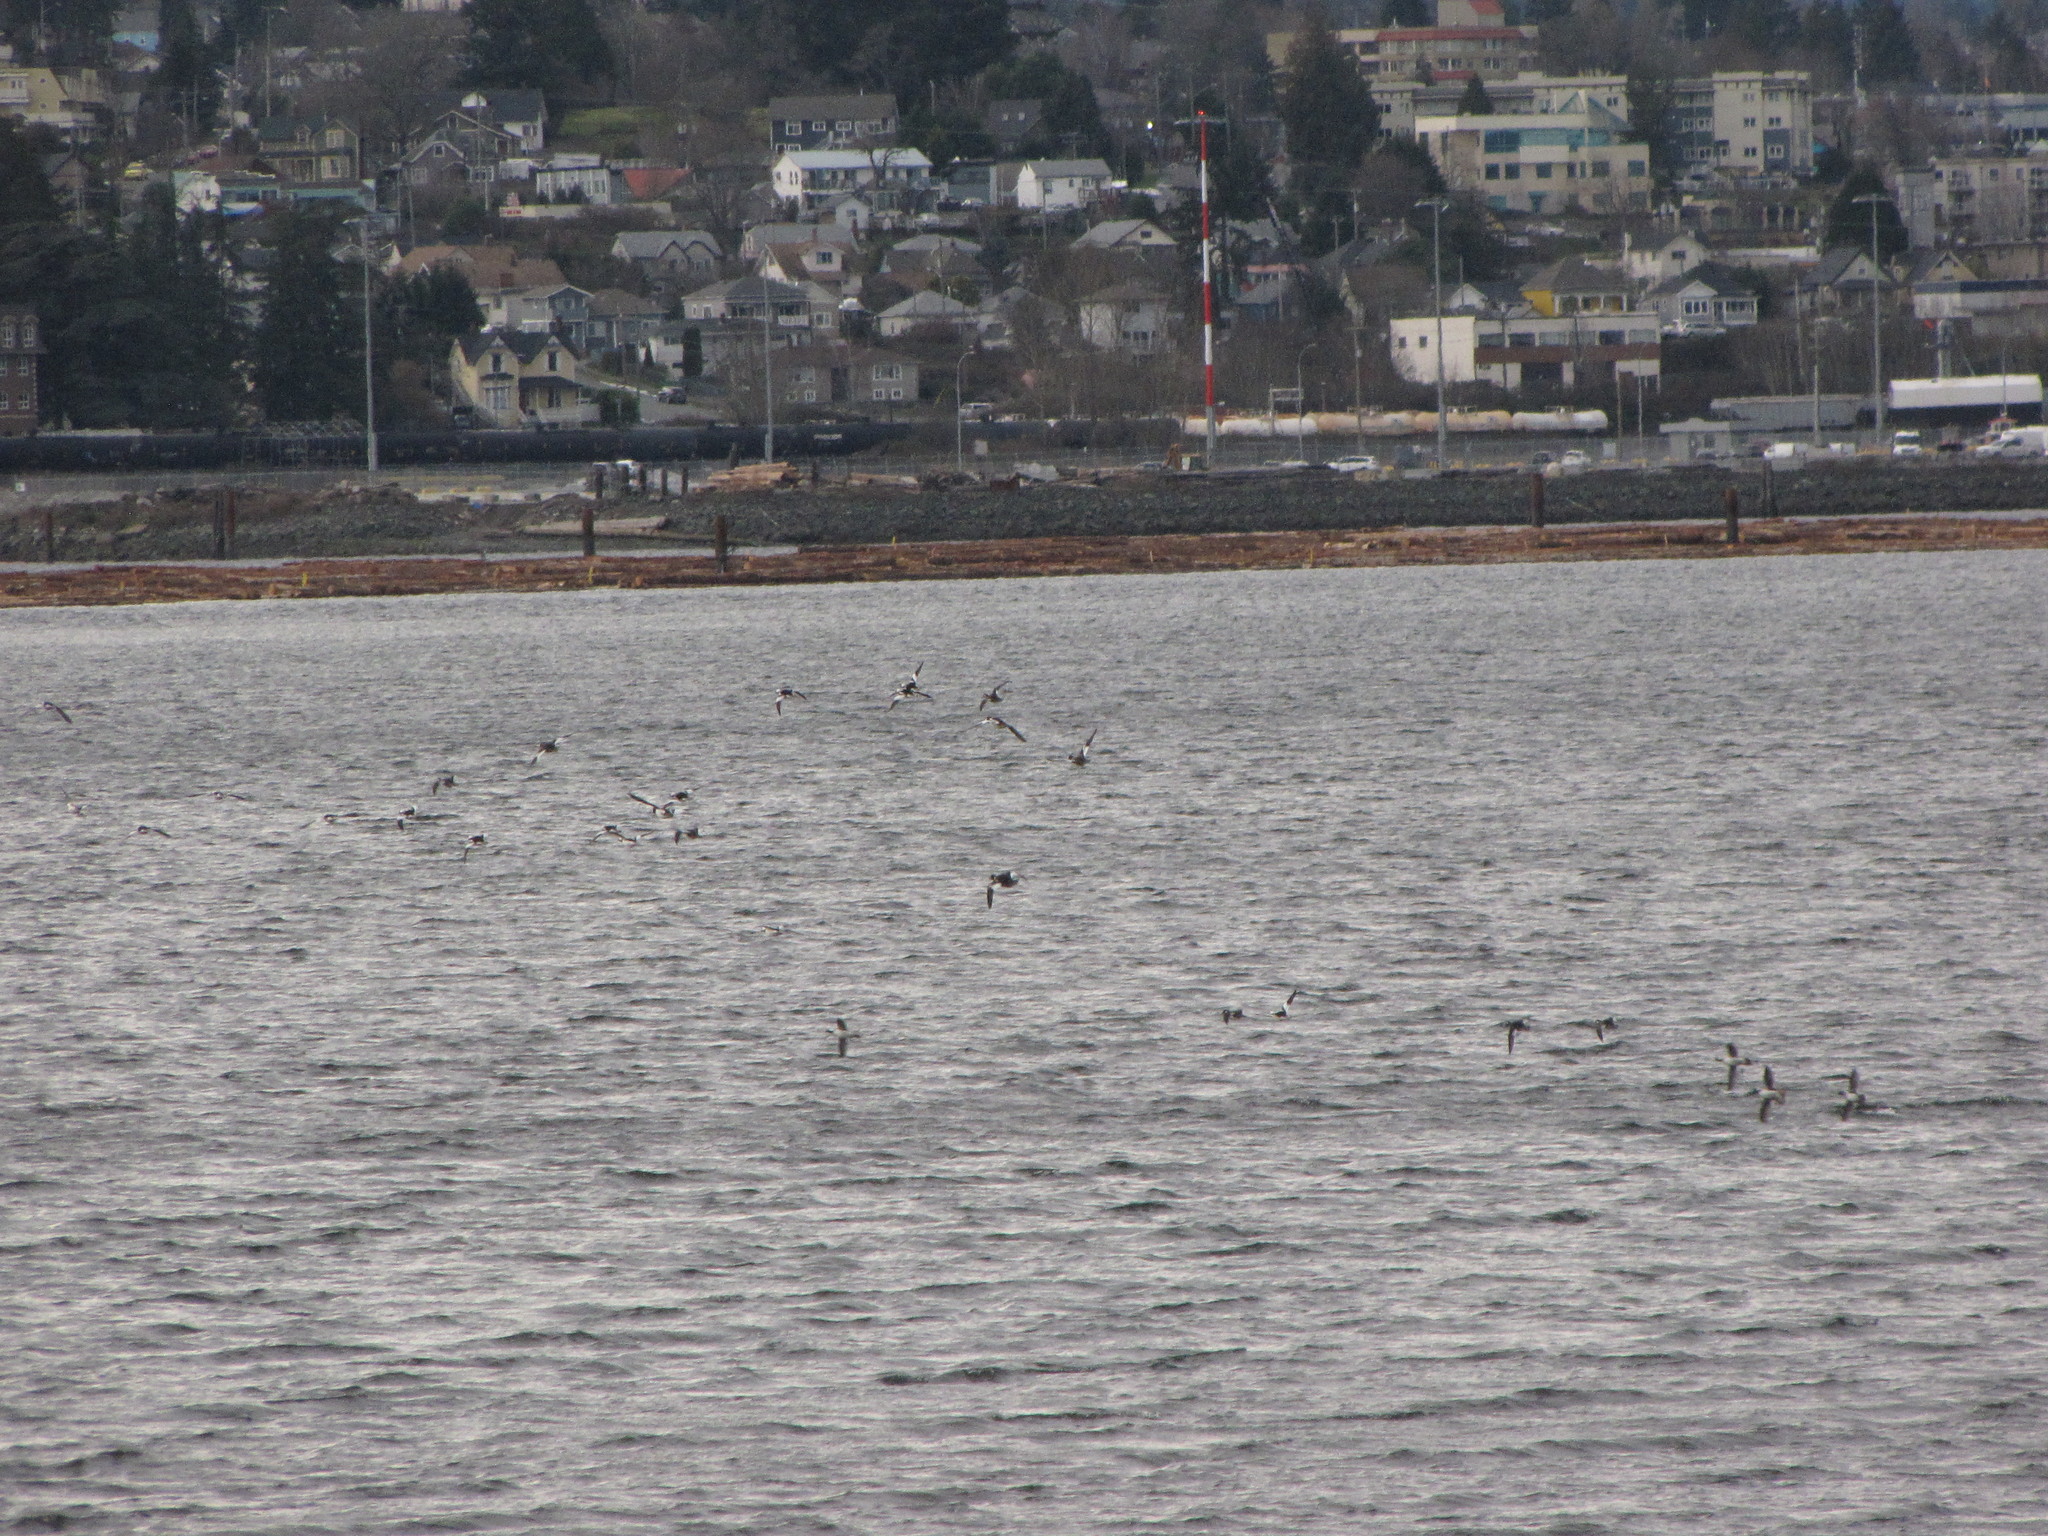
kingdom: Animalia
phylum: Chordata
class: Aves
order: Anseriformes
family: Anatidae
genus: Bucephala
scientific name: Bucephala clangula
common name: Common goldeneye
